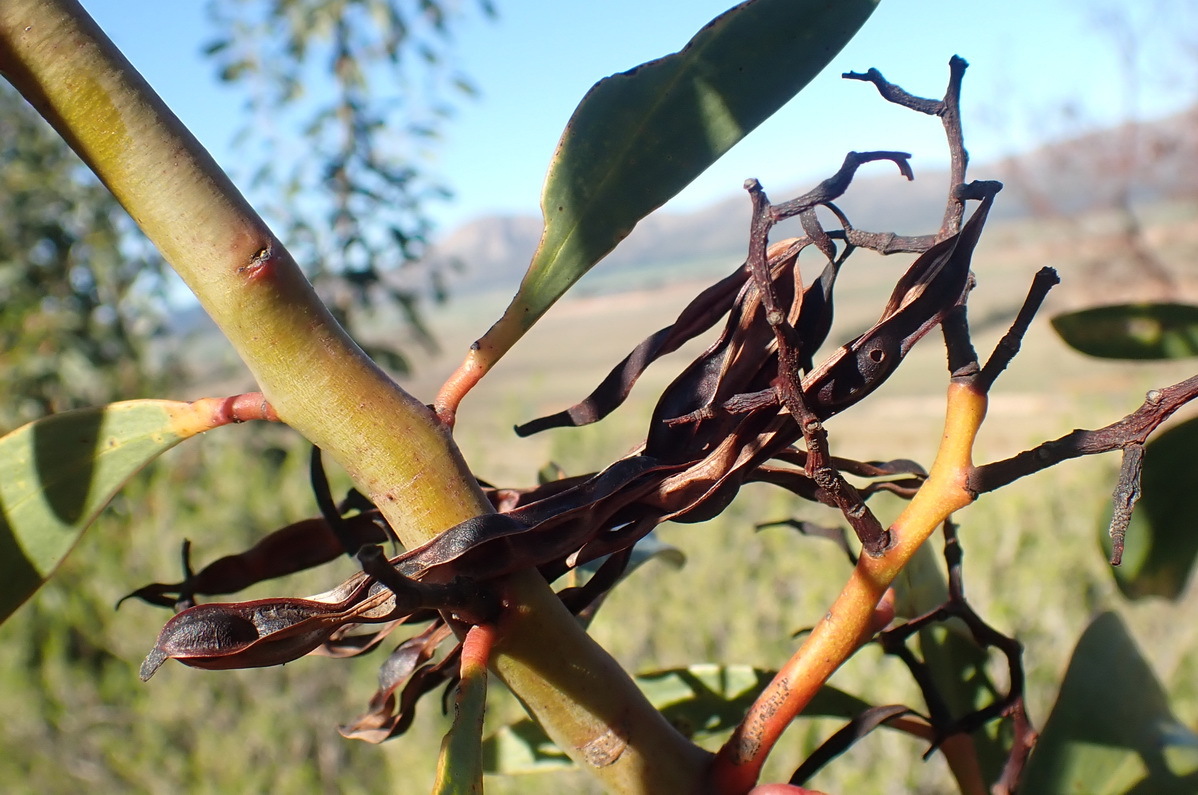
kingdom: Plantae
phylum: Tracheophyta
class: Magnoliopsida
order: Fabales
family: Fabaceae
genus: Acacia
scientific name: Acacia pycnantha
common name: Golden wattle
